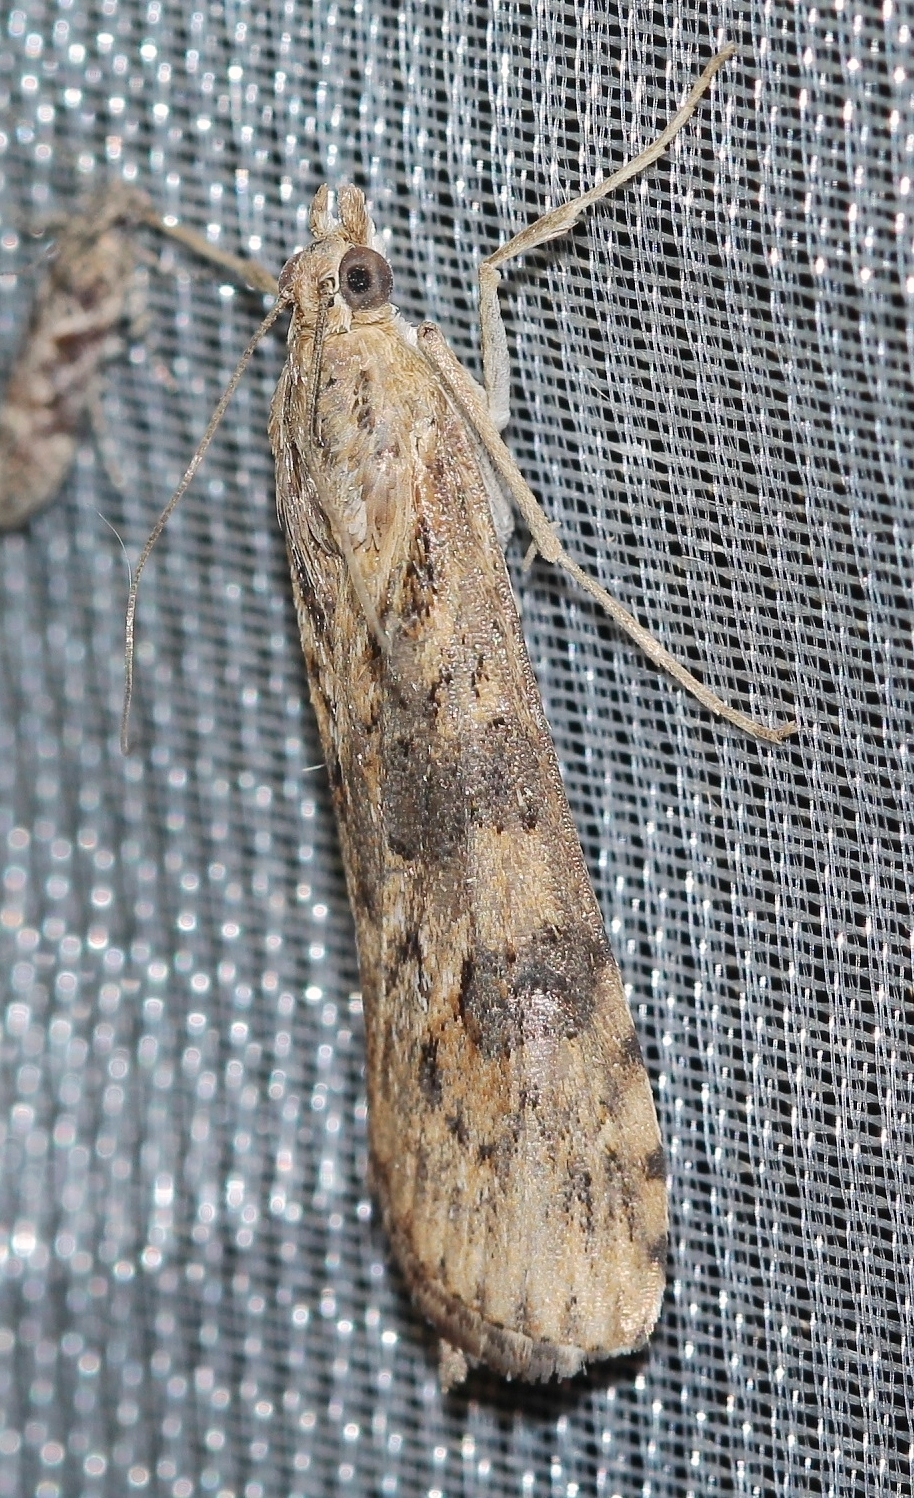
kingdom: Animalia
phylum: Arthropoda
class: Insecta
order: Lepidoptera
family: Crambidae
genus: Nomophila
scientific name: Nomophila noctuella
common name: Rush veneer
